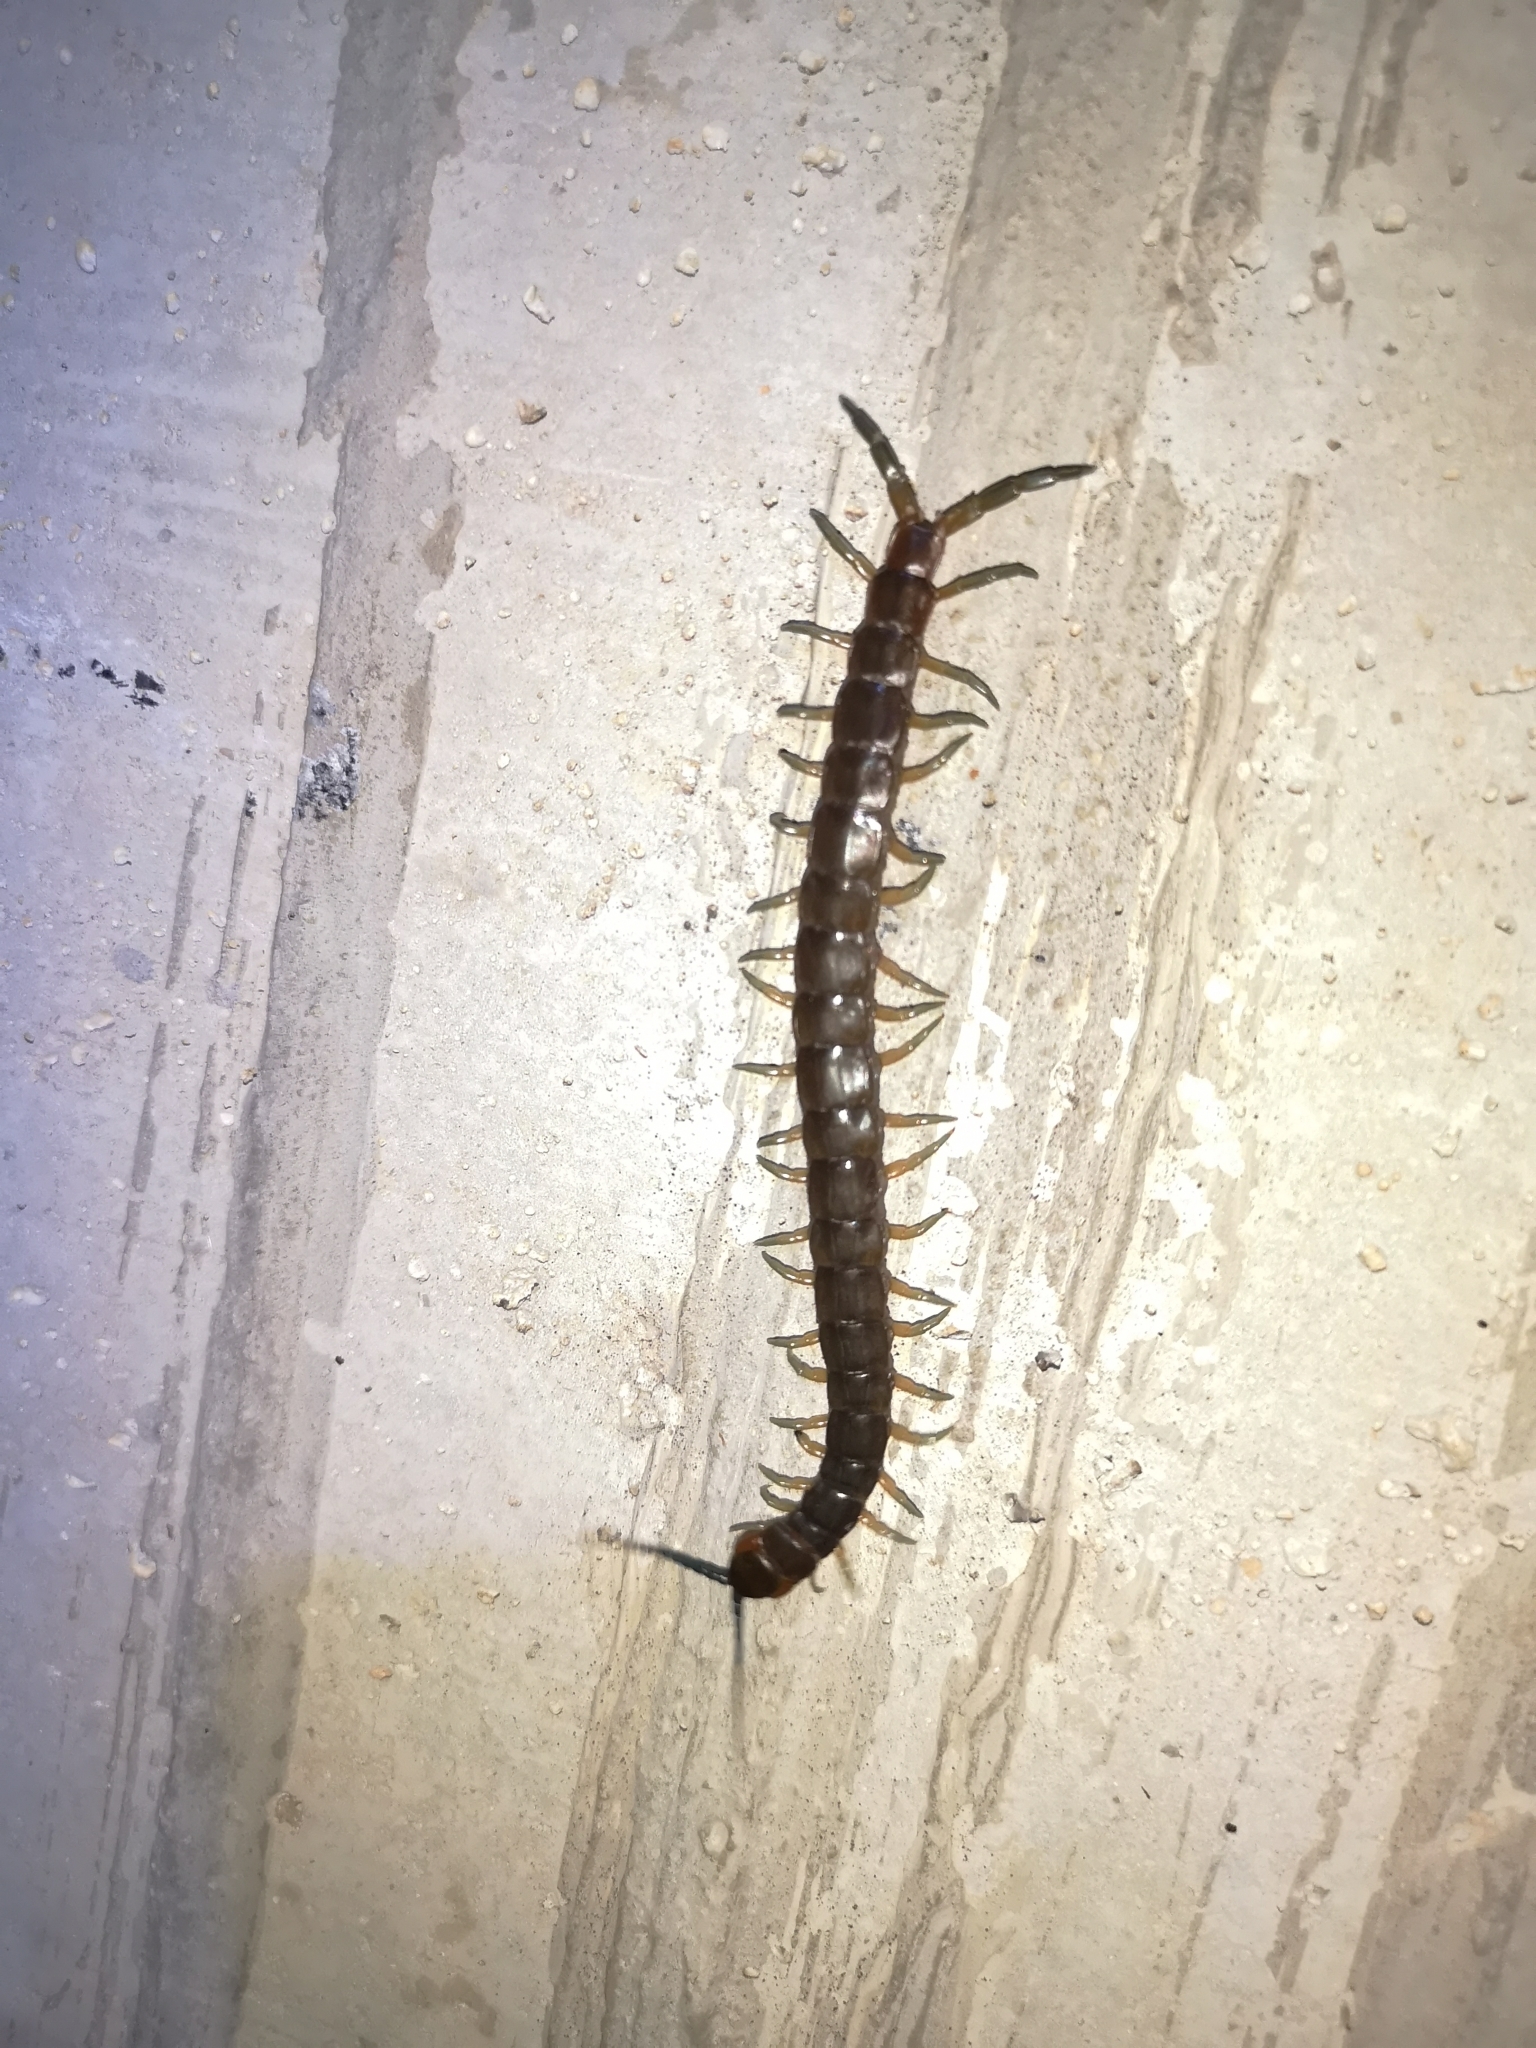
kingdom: Animalia
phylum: Arthropoda
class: Chilopoda
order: Scolopendromorpha
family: Scolopendridae
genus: Scolopendra
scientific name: Scolopendra dalmatica
